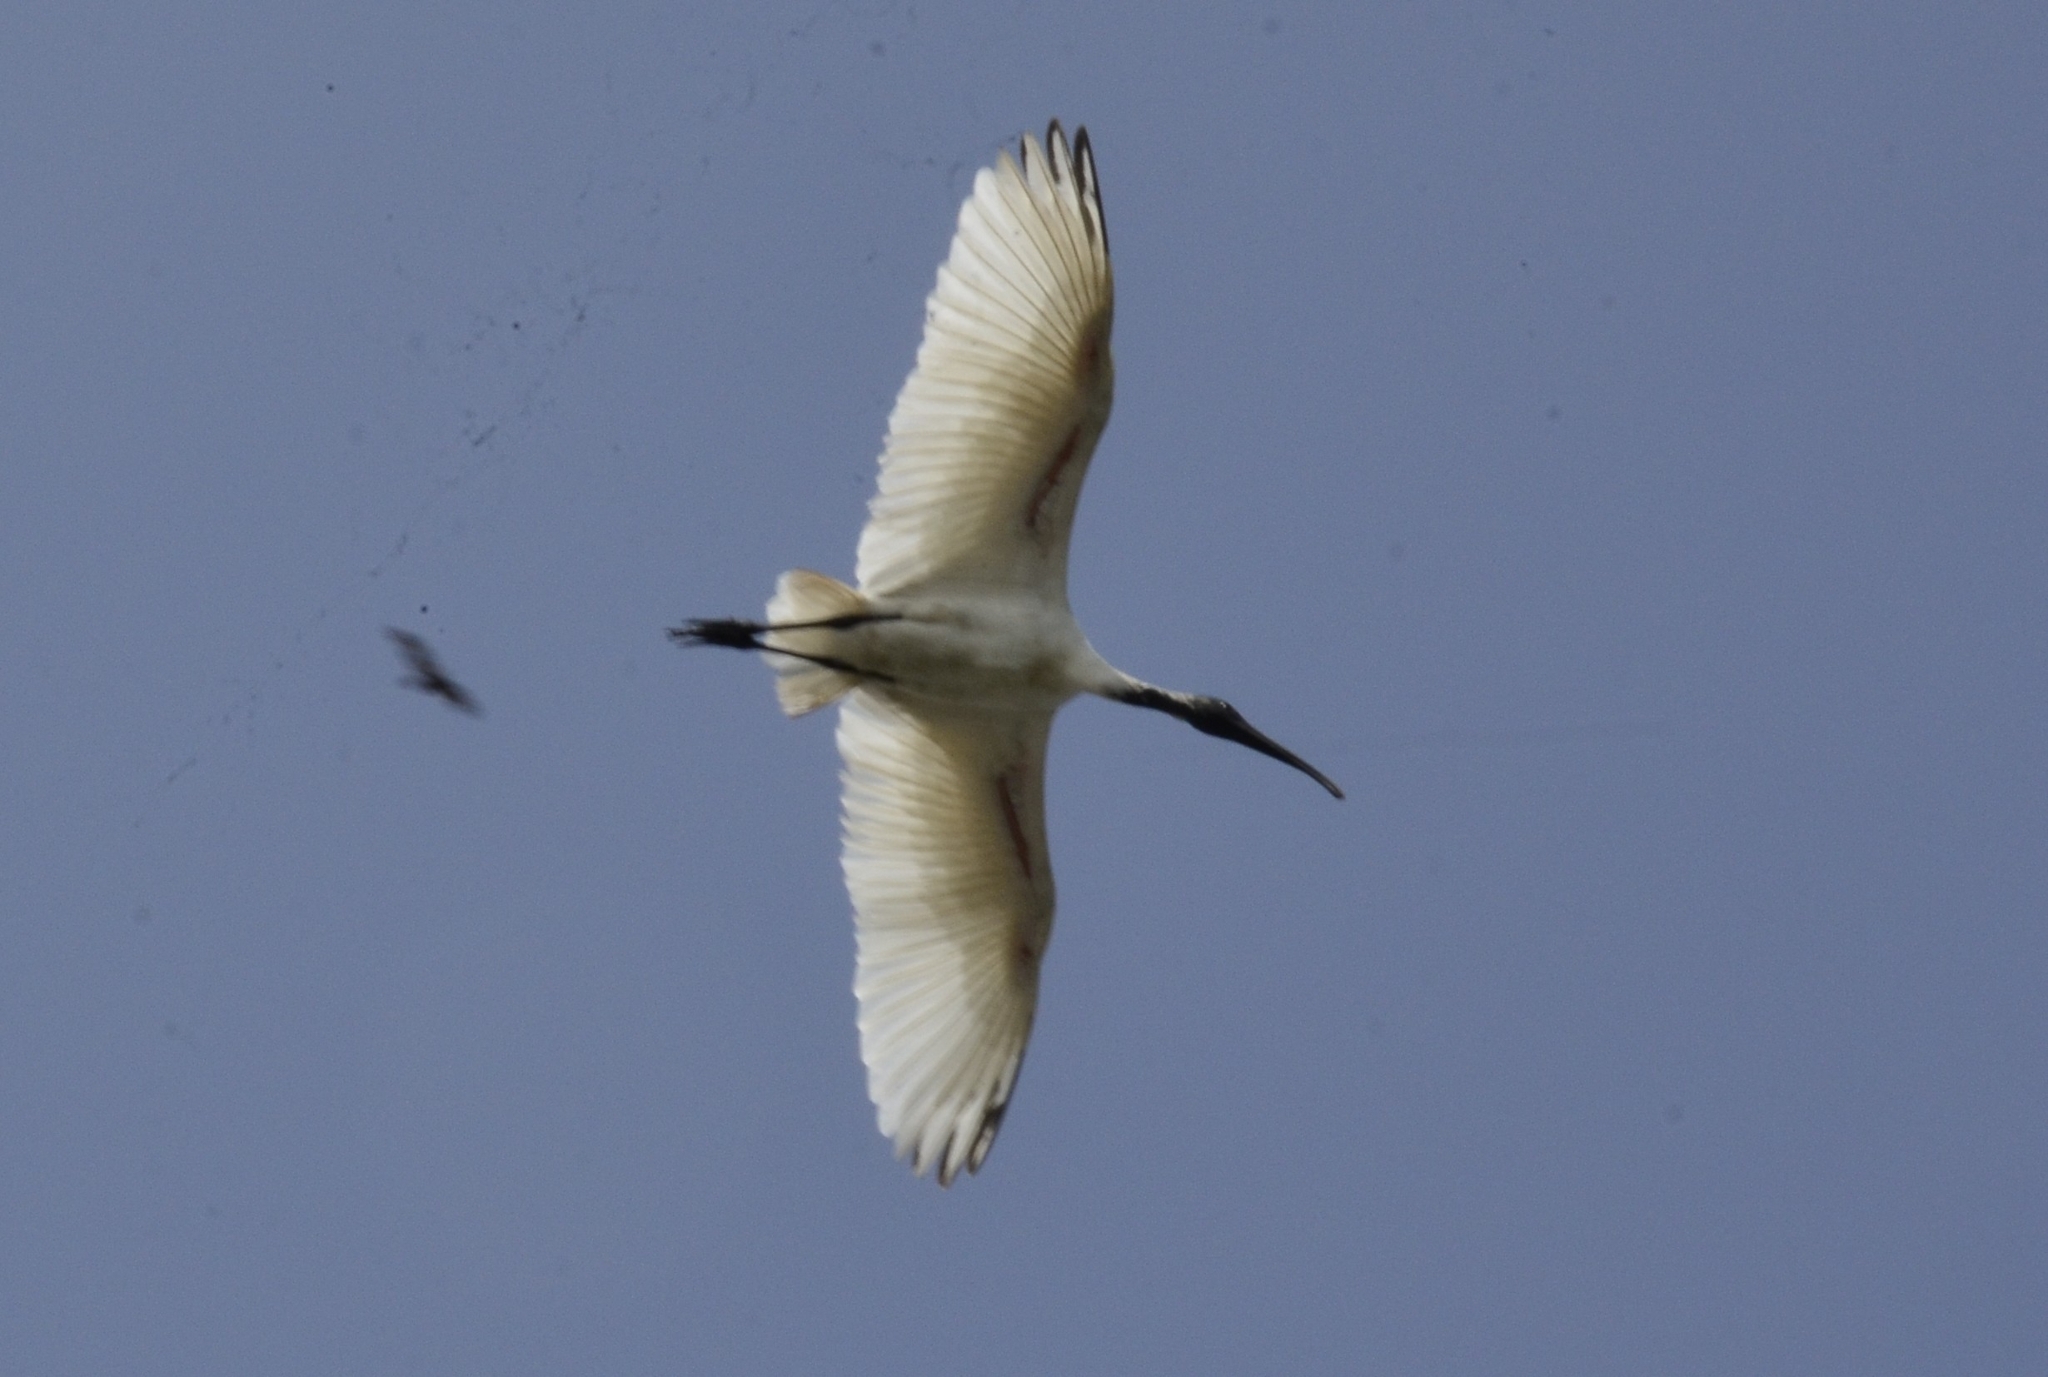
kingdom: Animalia
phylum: Chordata
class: Aves
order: Pelecaniformes
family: Threskiornithidae
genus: Threskiornis
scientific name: Threskiornis melanocephalus
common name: Black-headed ibis
